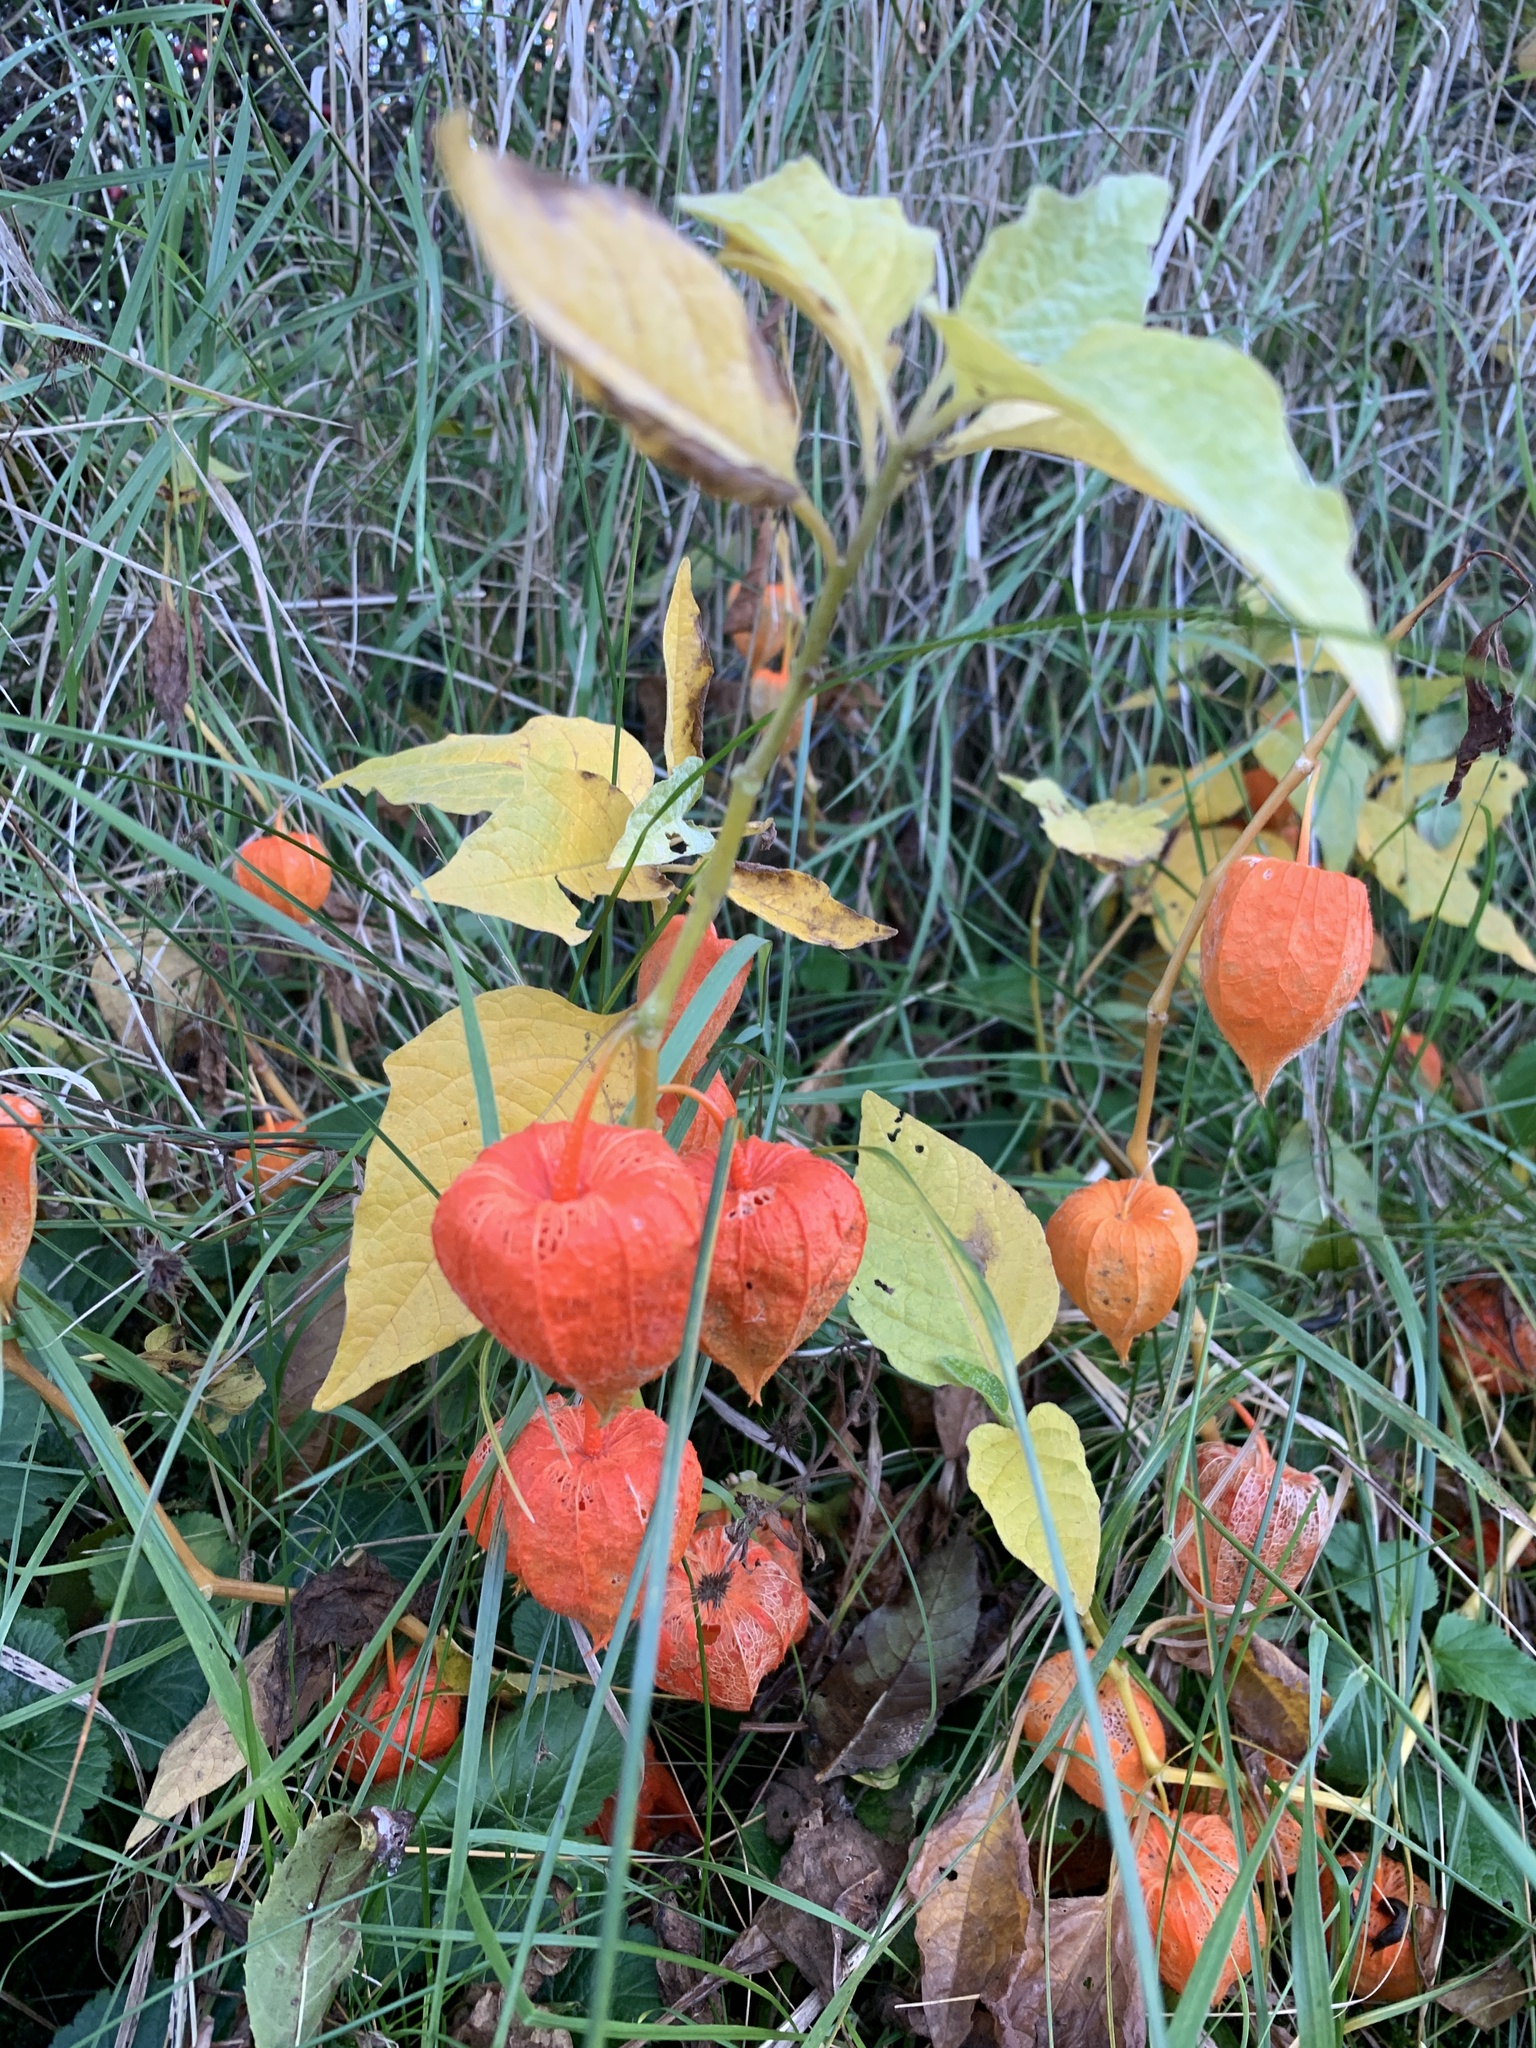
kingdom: Plantae
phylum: Tracheophyta
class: Magnoliopsida
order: Solanales
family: Solanaceae
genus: Alkekengi
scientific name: Alkekengi officinarum
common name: Japanese-lantern
